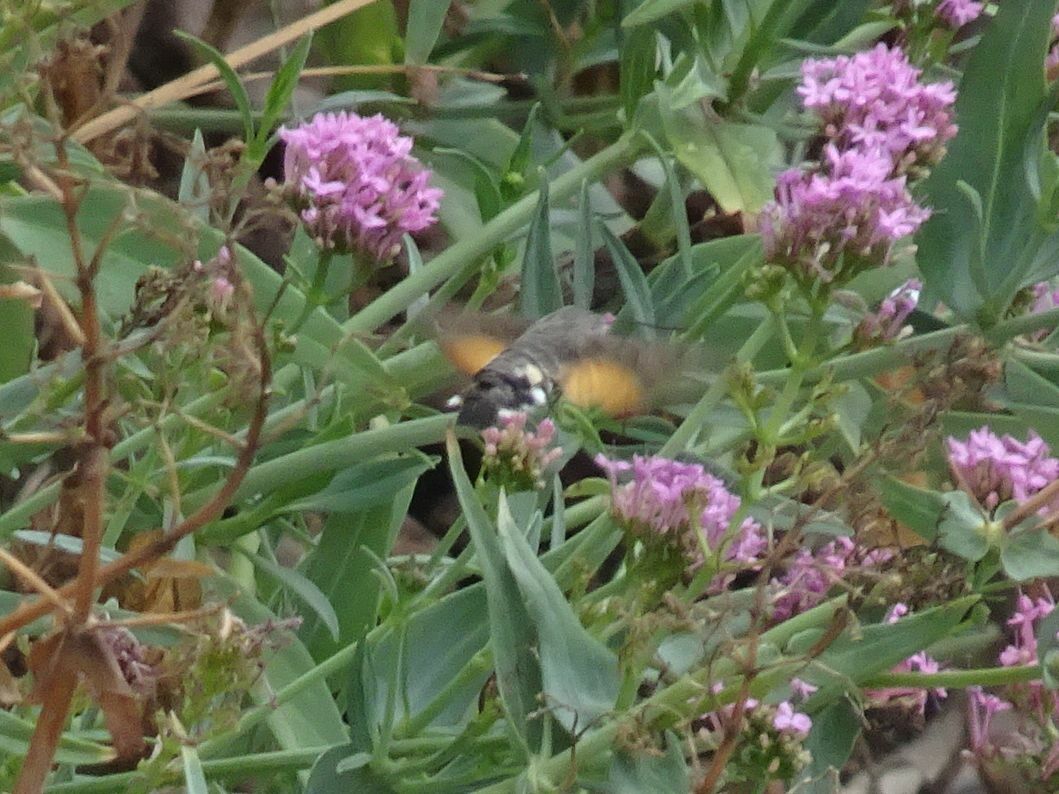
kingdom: Animalia
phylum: Arthropoda
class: Insecta
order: Lepidoptera
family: Sphingidae
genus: Macroglossum
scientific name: Macroglossum stellatarum
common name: Humming-bird hawk-moth
